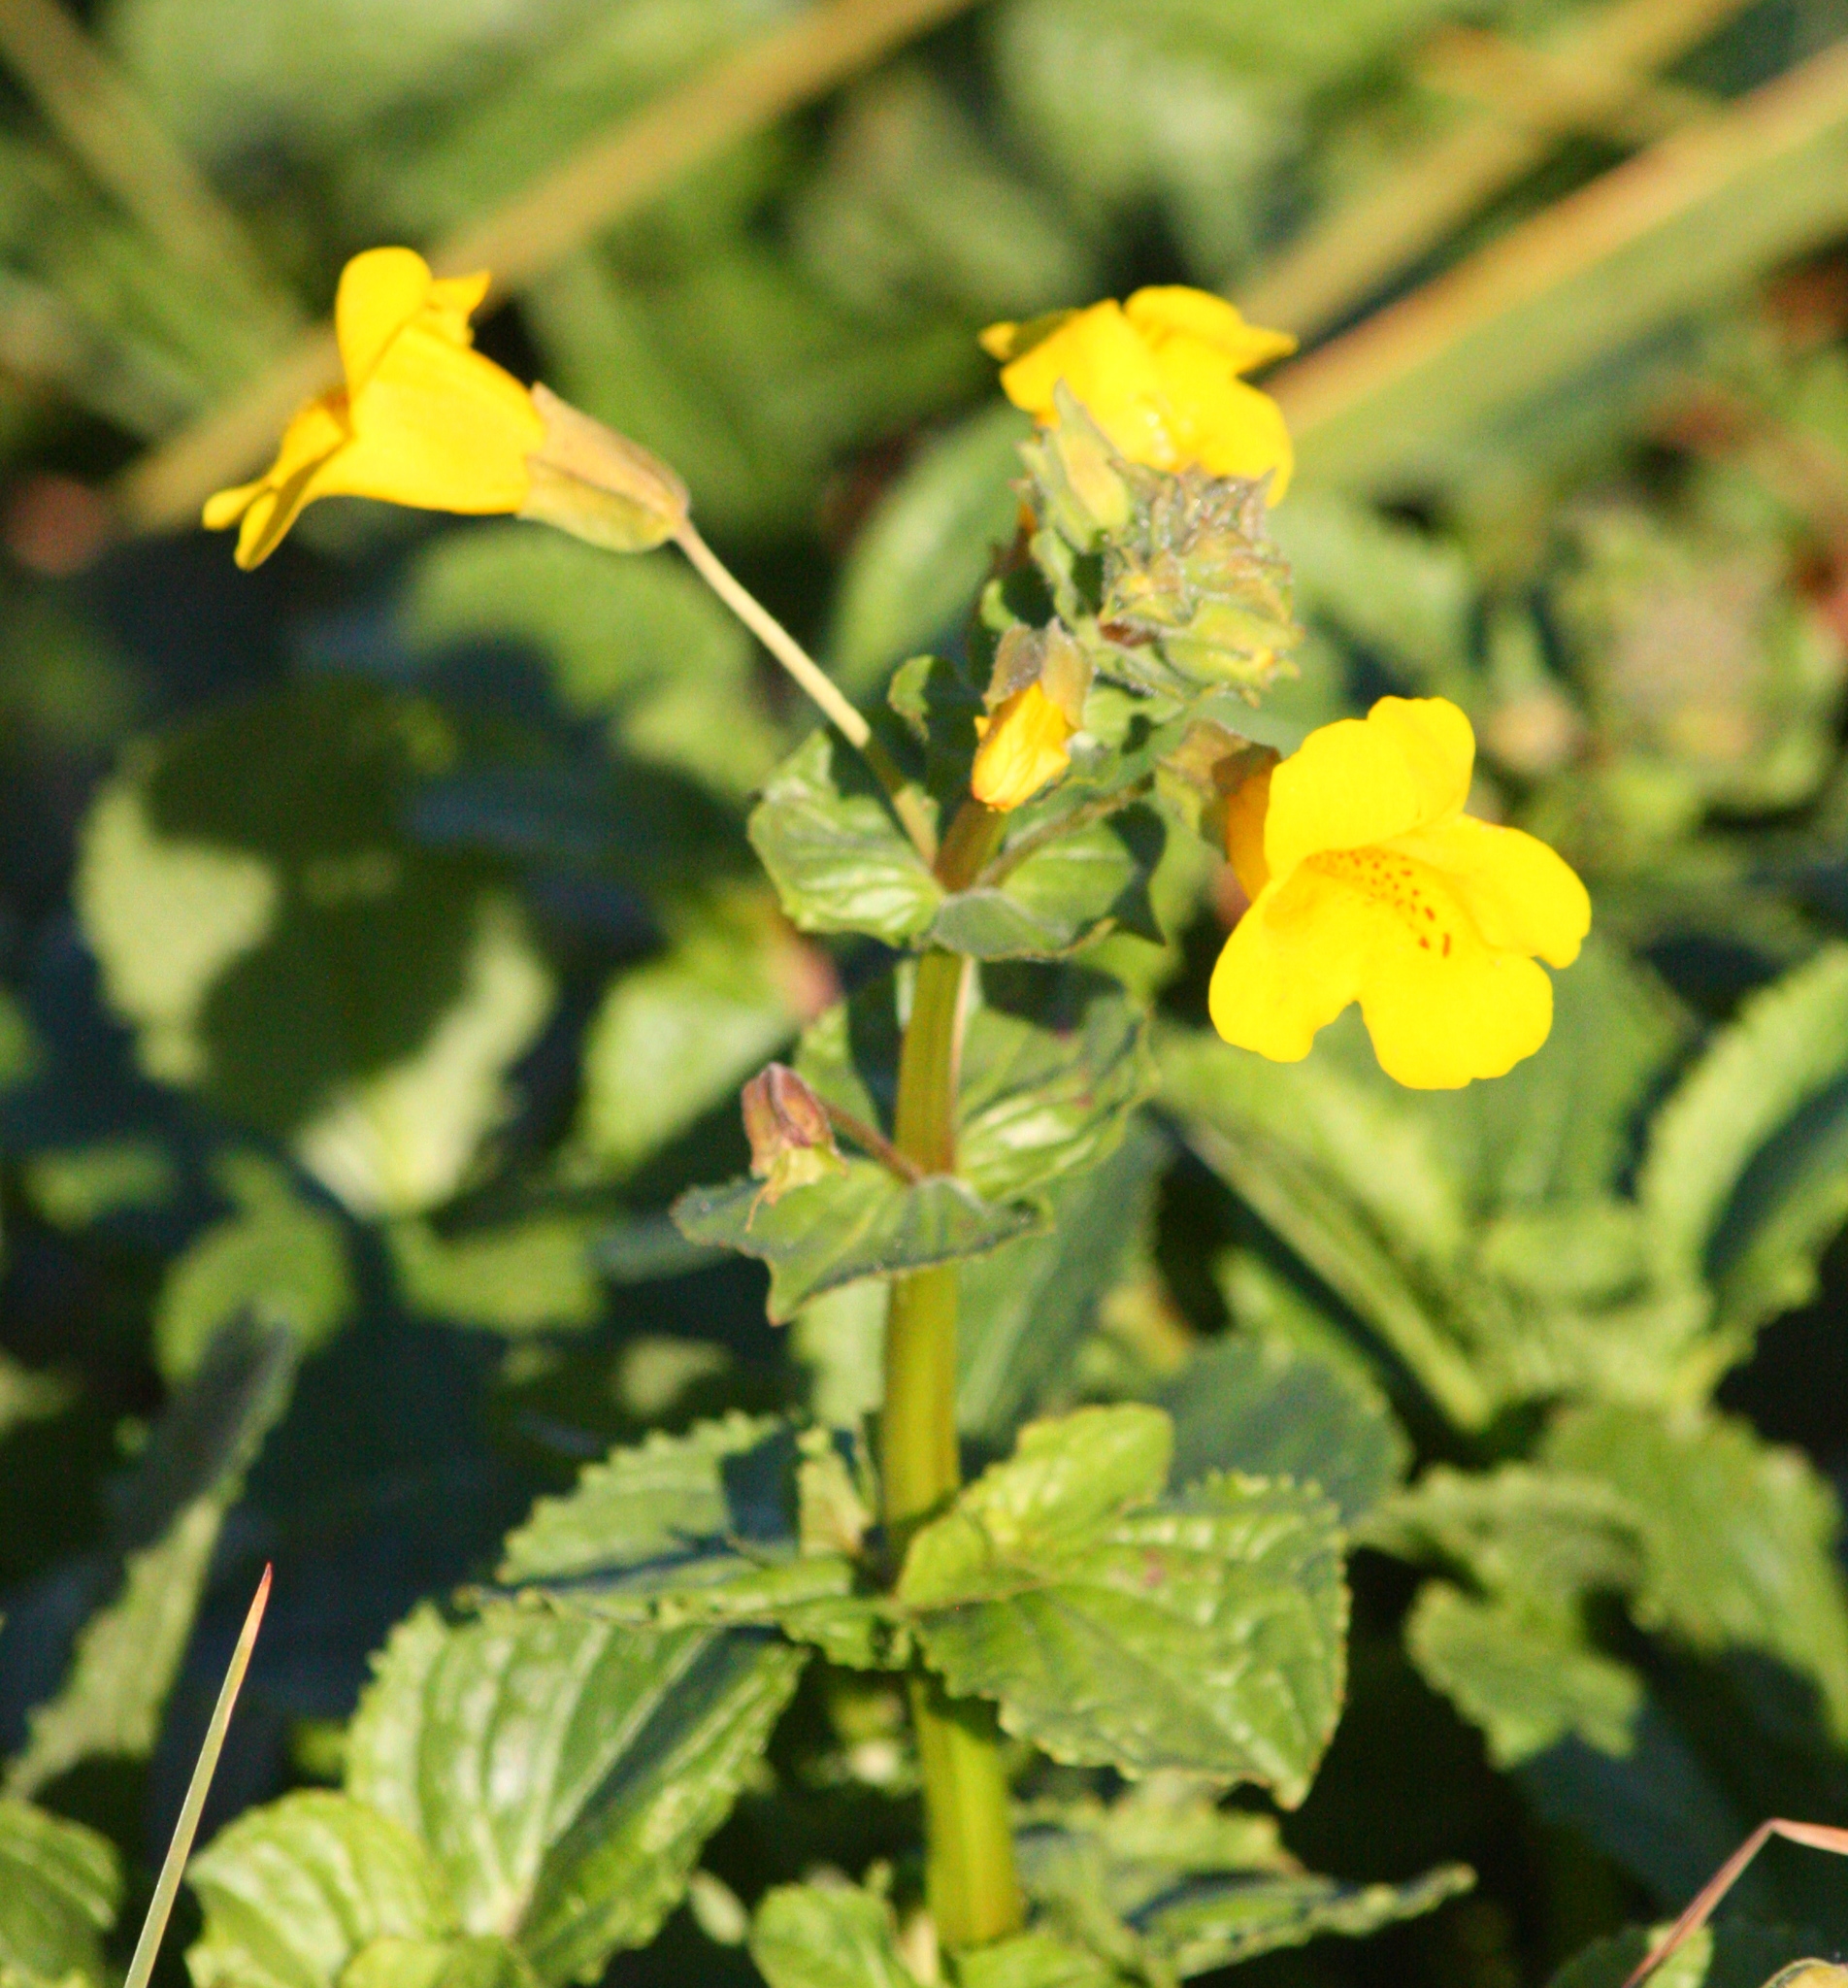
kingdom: Plantae
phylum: Tracheophyta
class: Magnoliopsida
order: Lamiales
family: Phrymaceae
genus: Erythranthe
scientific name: Erythranthe guttata
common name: Monkeyflower
